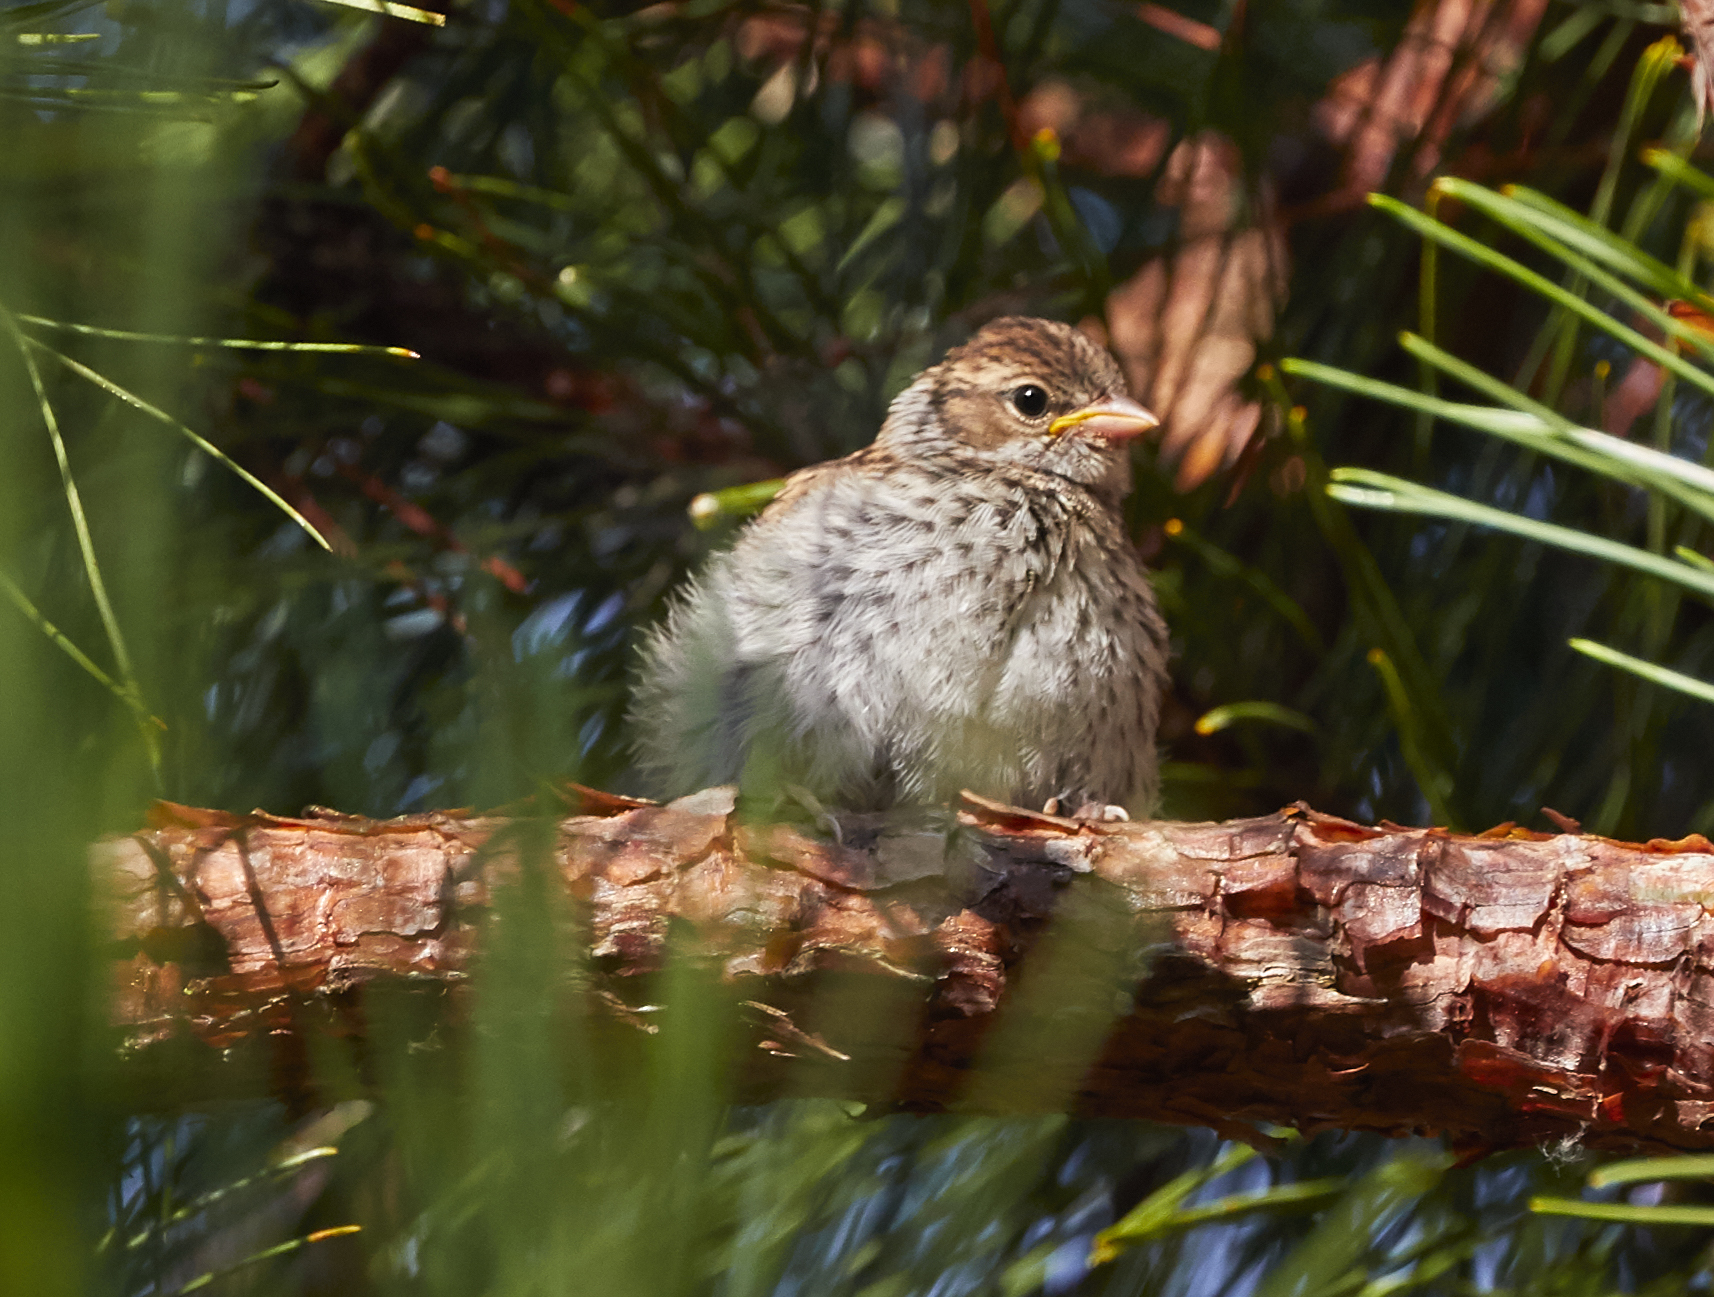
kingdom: Animalia
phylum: Chordata
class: Aves
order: Passeriformes
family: Passerellidae
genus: Spizella
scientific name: Spizella passerina
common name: Chipping sparrow
